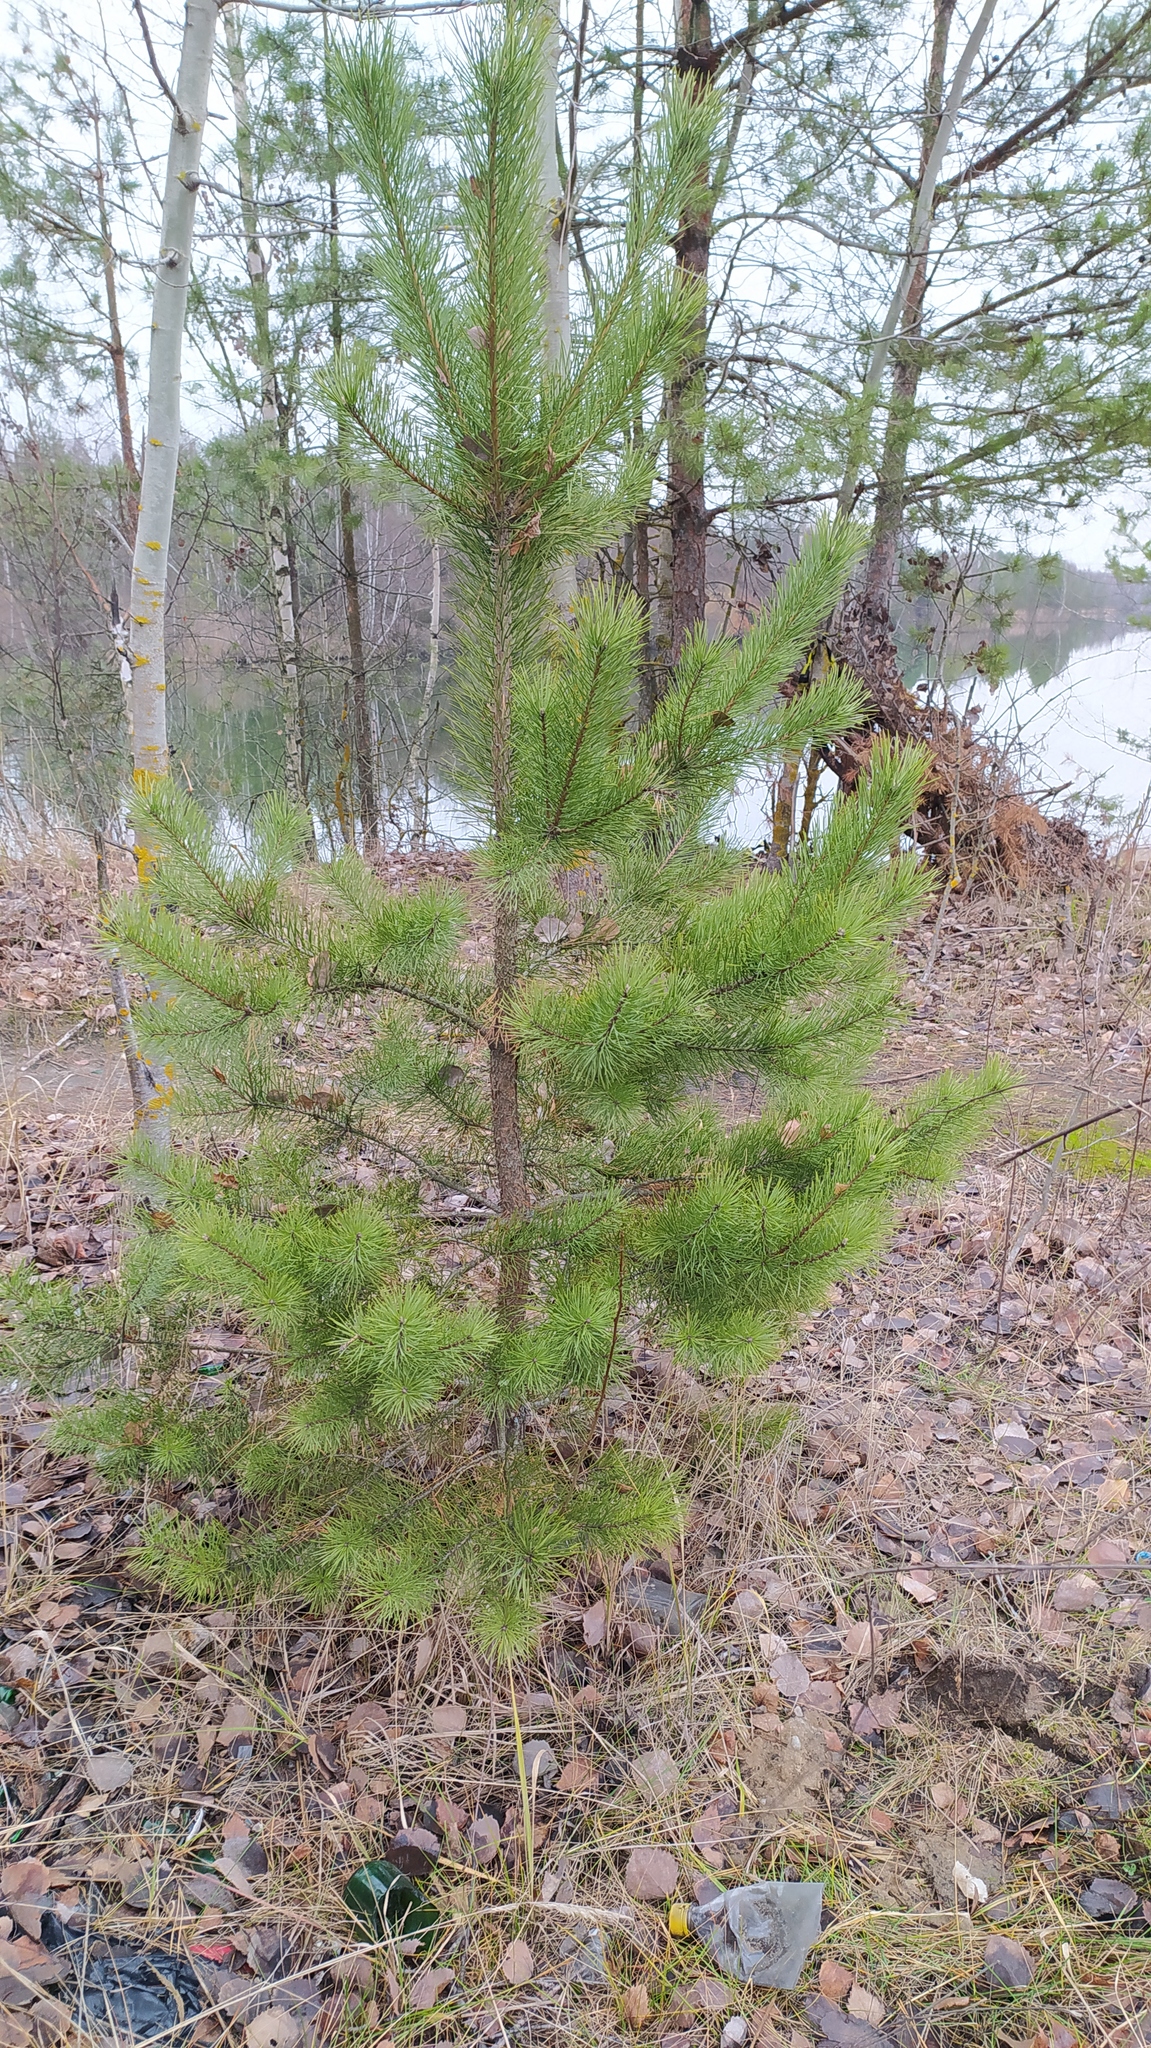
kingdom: Plantae
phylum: Tracheophyta
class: Pinopsida
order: Pinales
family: Pinaceae
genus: Pinus
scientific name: Pinus sylvestris
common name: Scots pine
